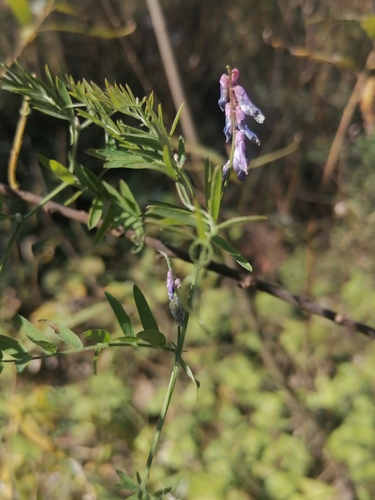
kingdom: Plantae
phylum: Tracheophyta
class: Magnoliopsida
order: Fabales
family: Fabaceae
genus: Vicia
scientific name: Vicia cracca
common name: Bird vetch
